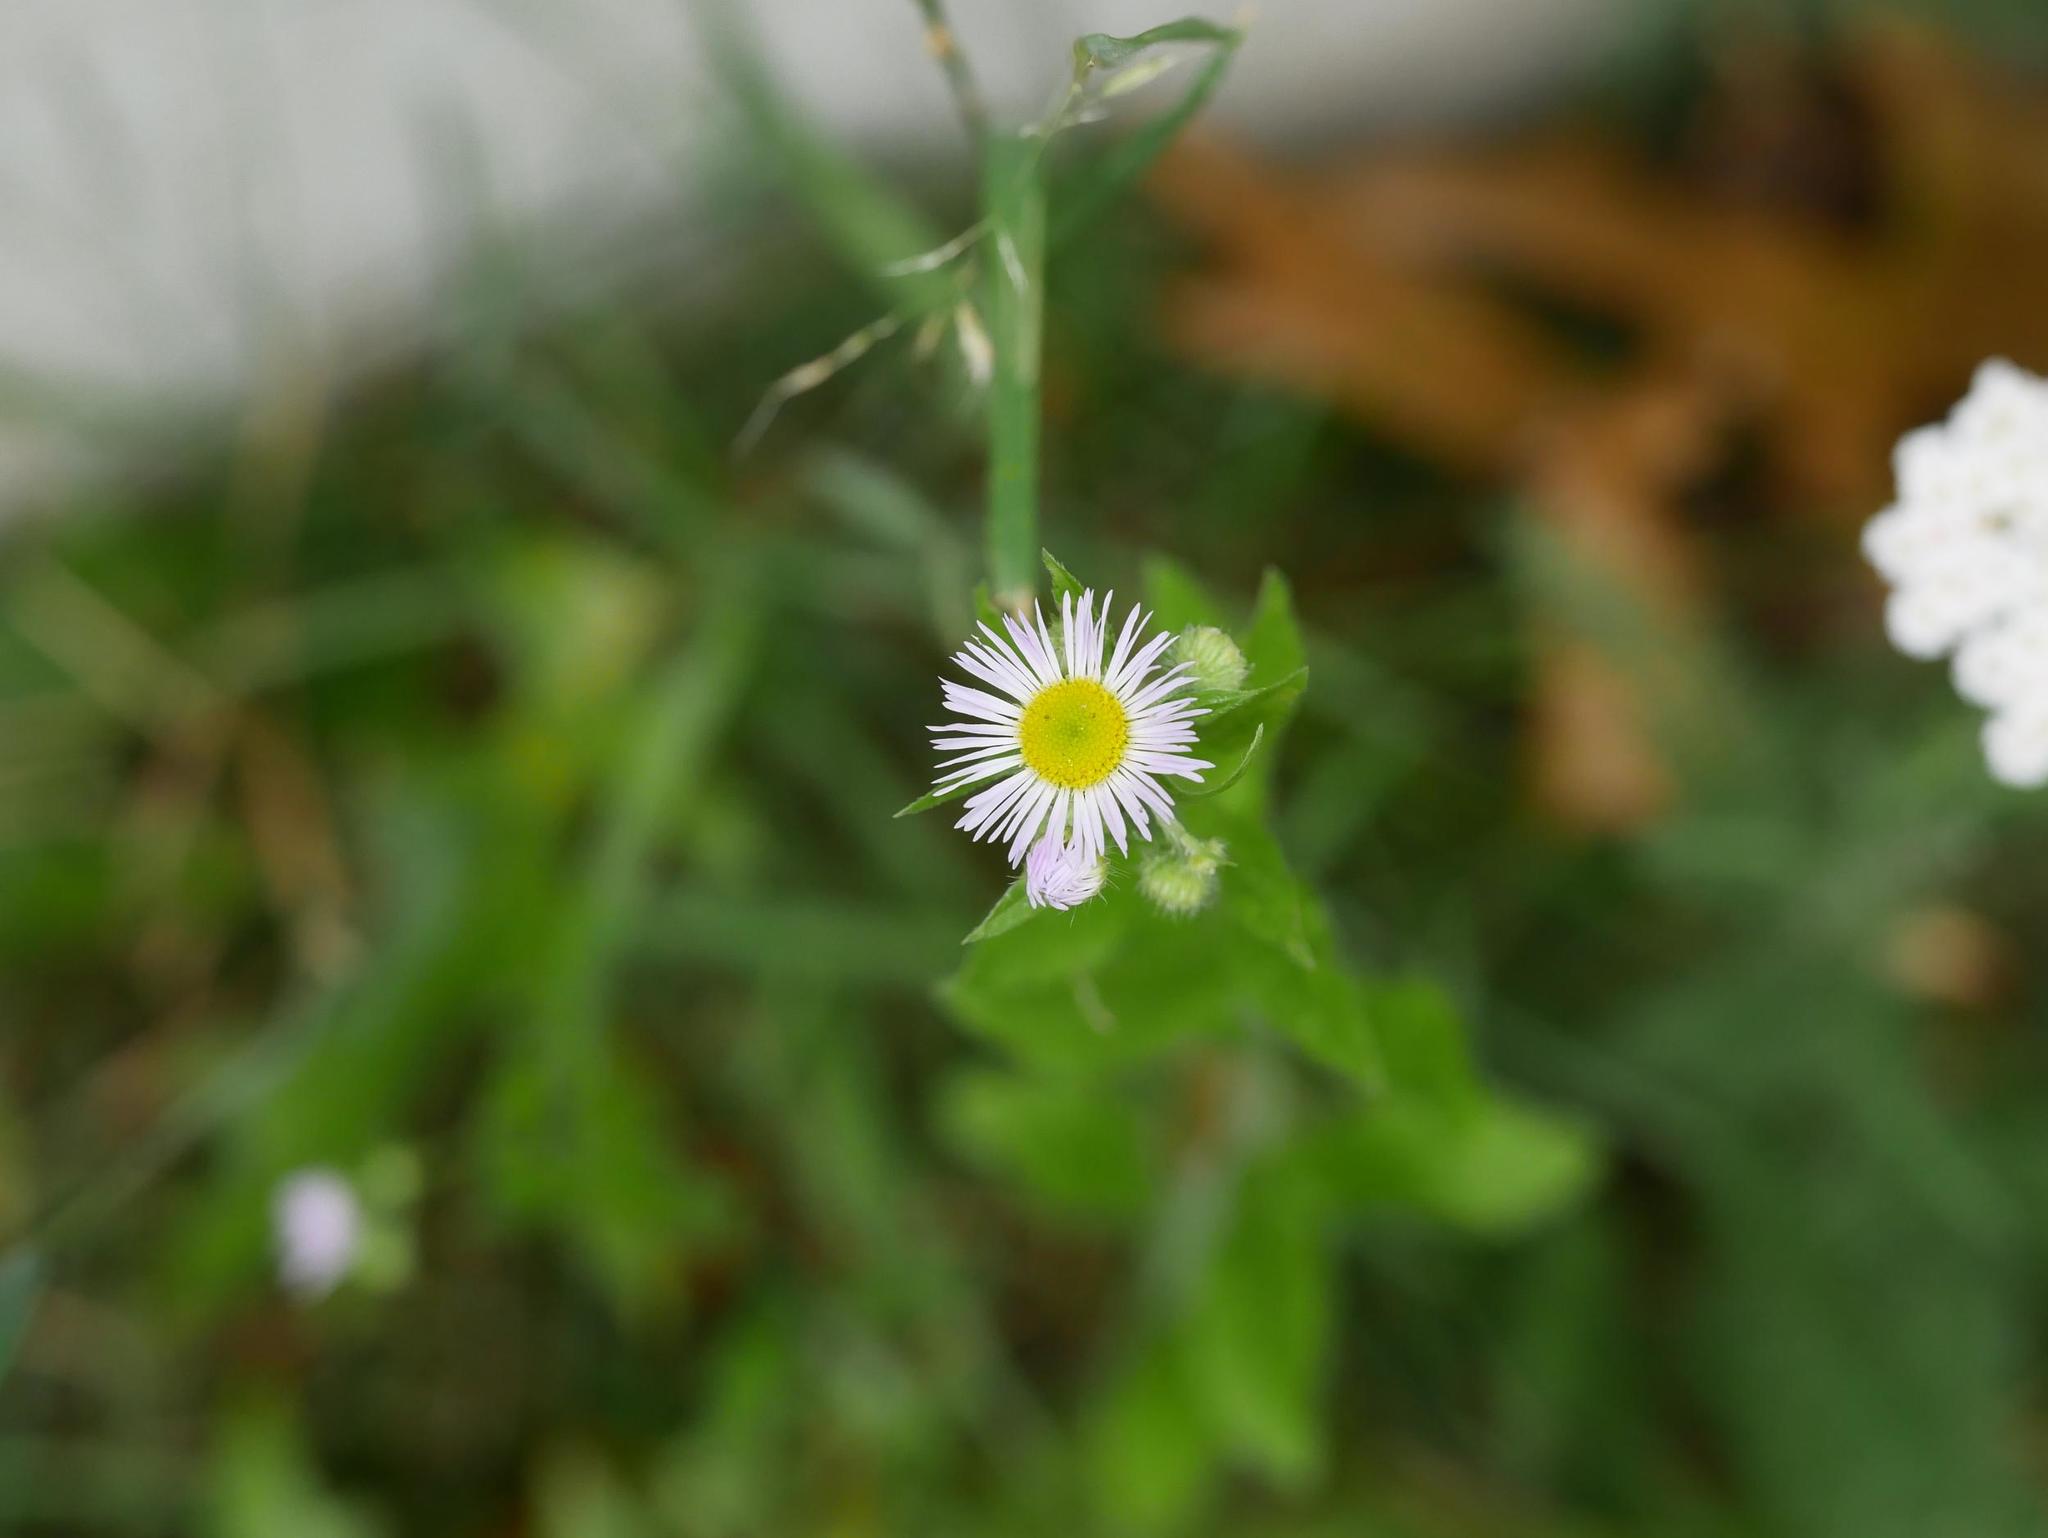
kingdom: Plantae
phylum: Tracheophyta
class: Magnoliopsida
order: Asterales
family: Asteraceae
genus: Erigeron
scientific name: Erigeron annuus
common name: Tall fleabane
